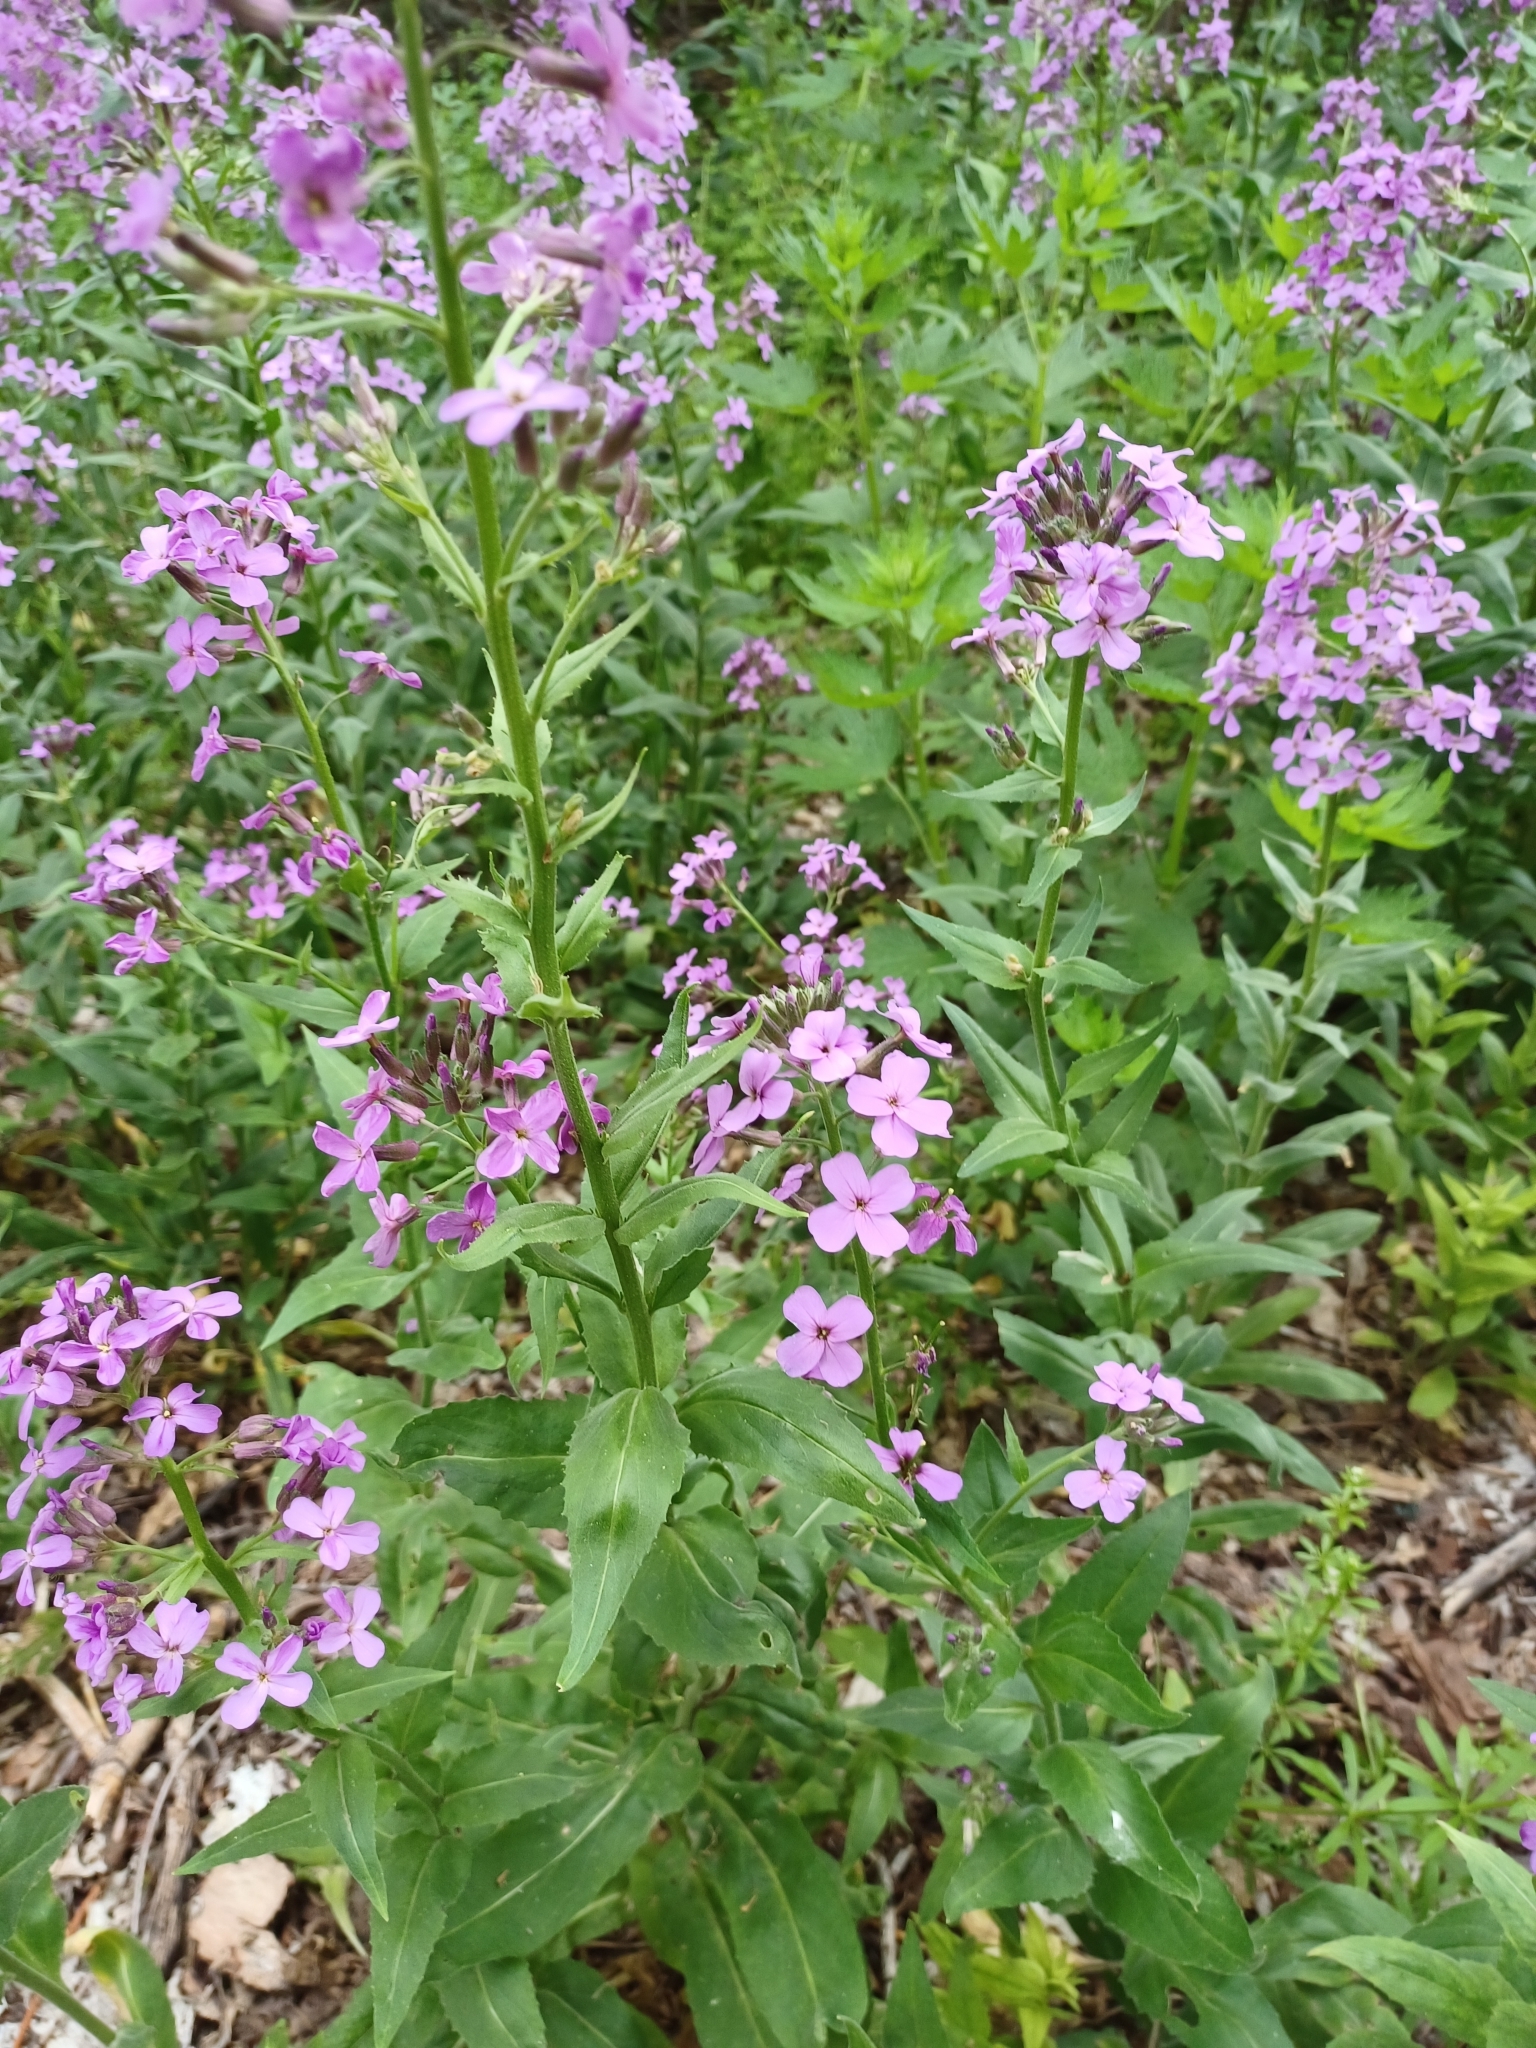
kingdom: Plantae
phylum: Tracheophyta
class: Magnoliopsida
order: Brassicales
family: Brassicaceae
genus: Hesperis
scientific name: Hesperis matronalis
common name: Dame's-violet
